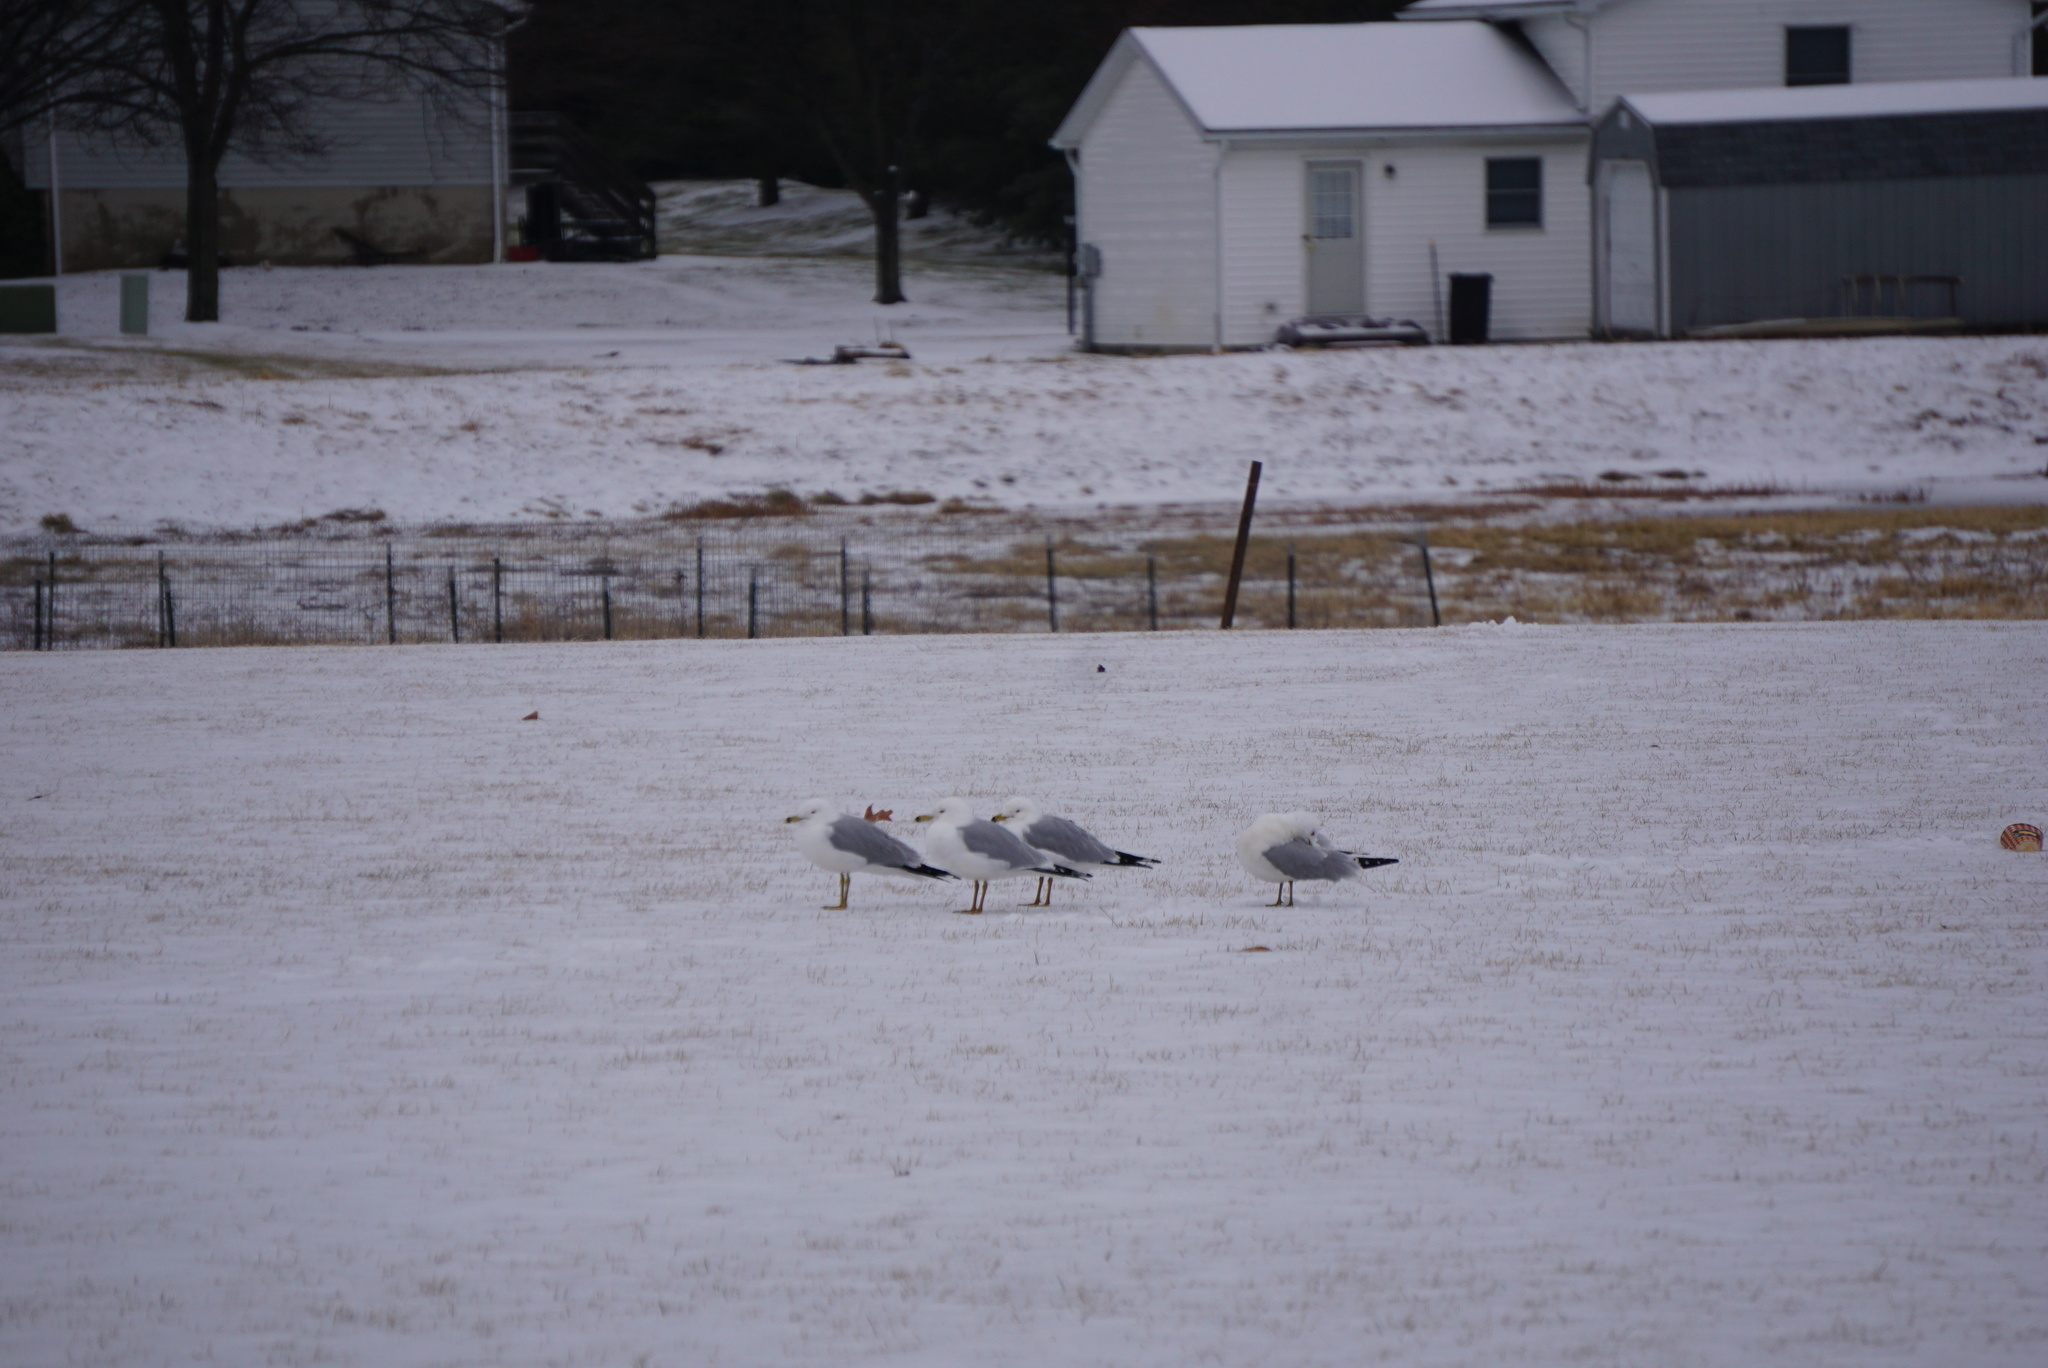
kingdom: Animalia
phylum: Chordata
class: Aves
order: Charadriiformes
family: Laridae
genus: Larus
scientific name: Larus delawarensis
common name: Ring-billed gull
